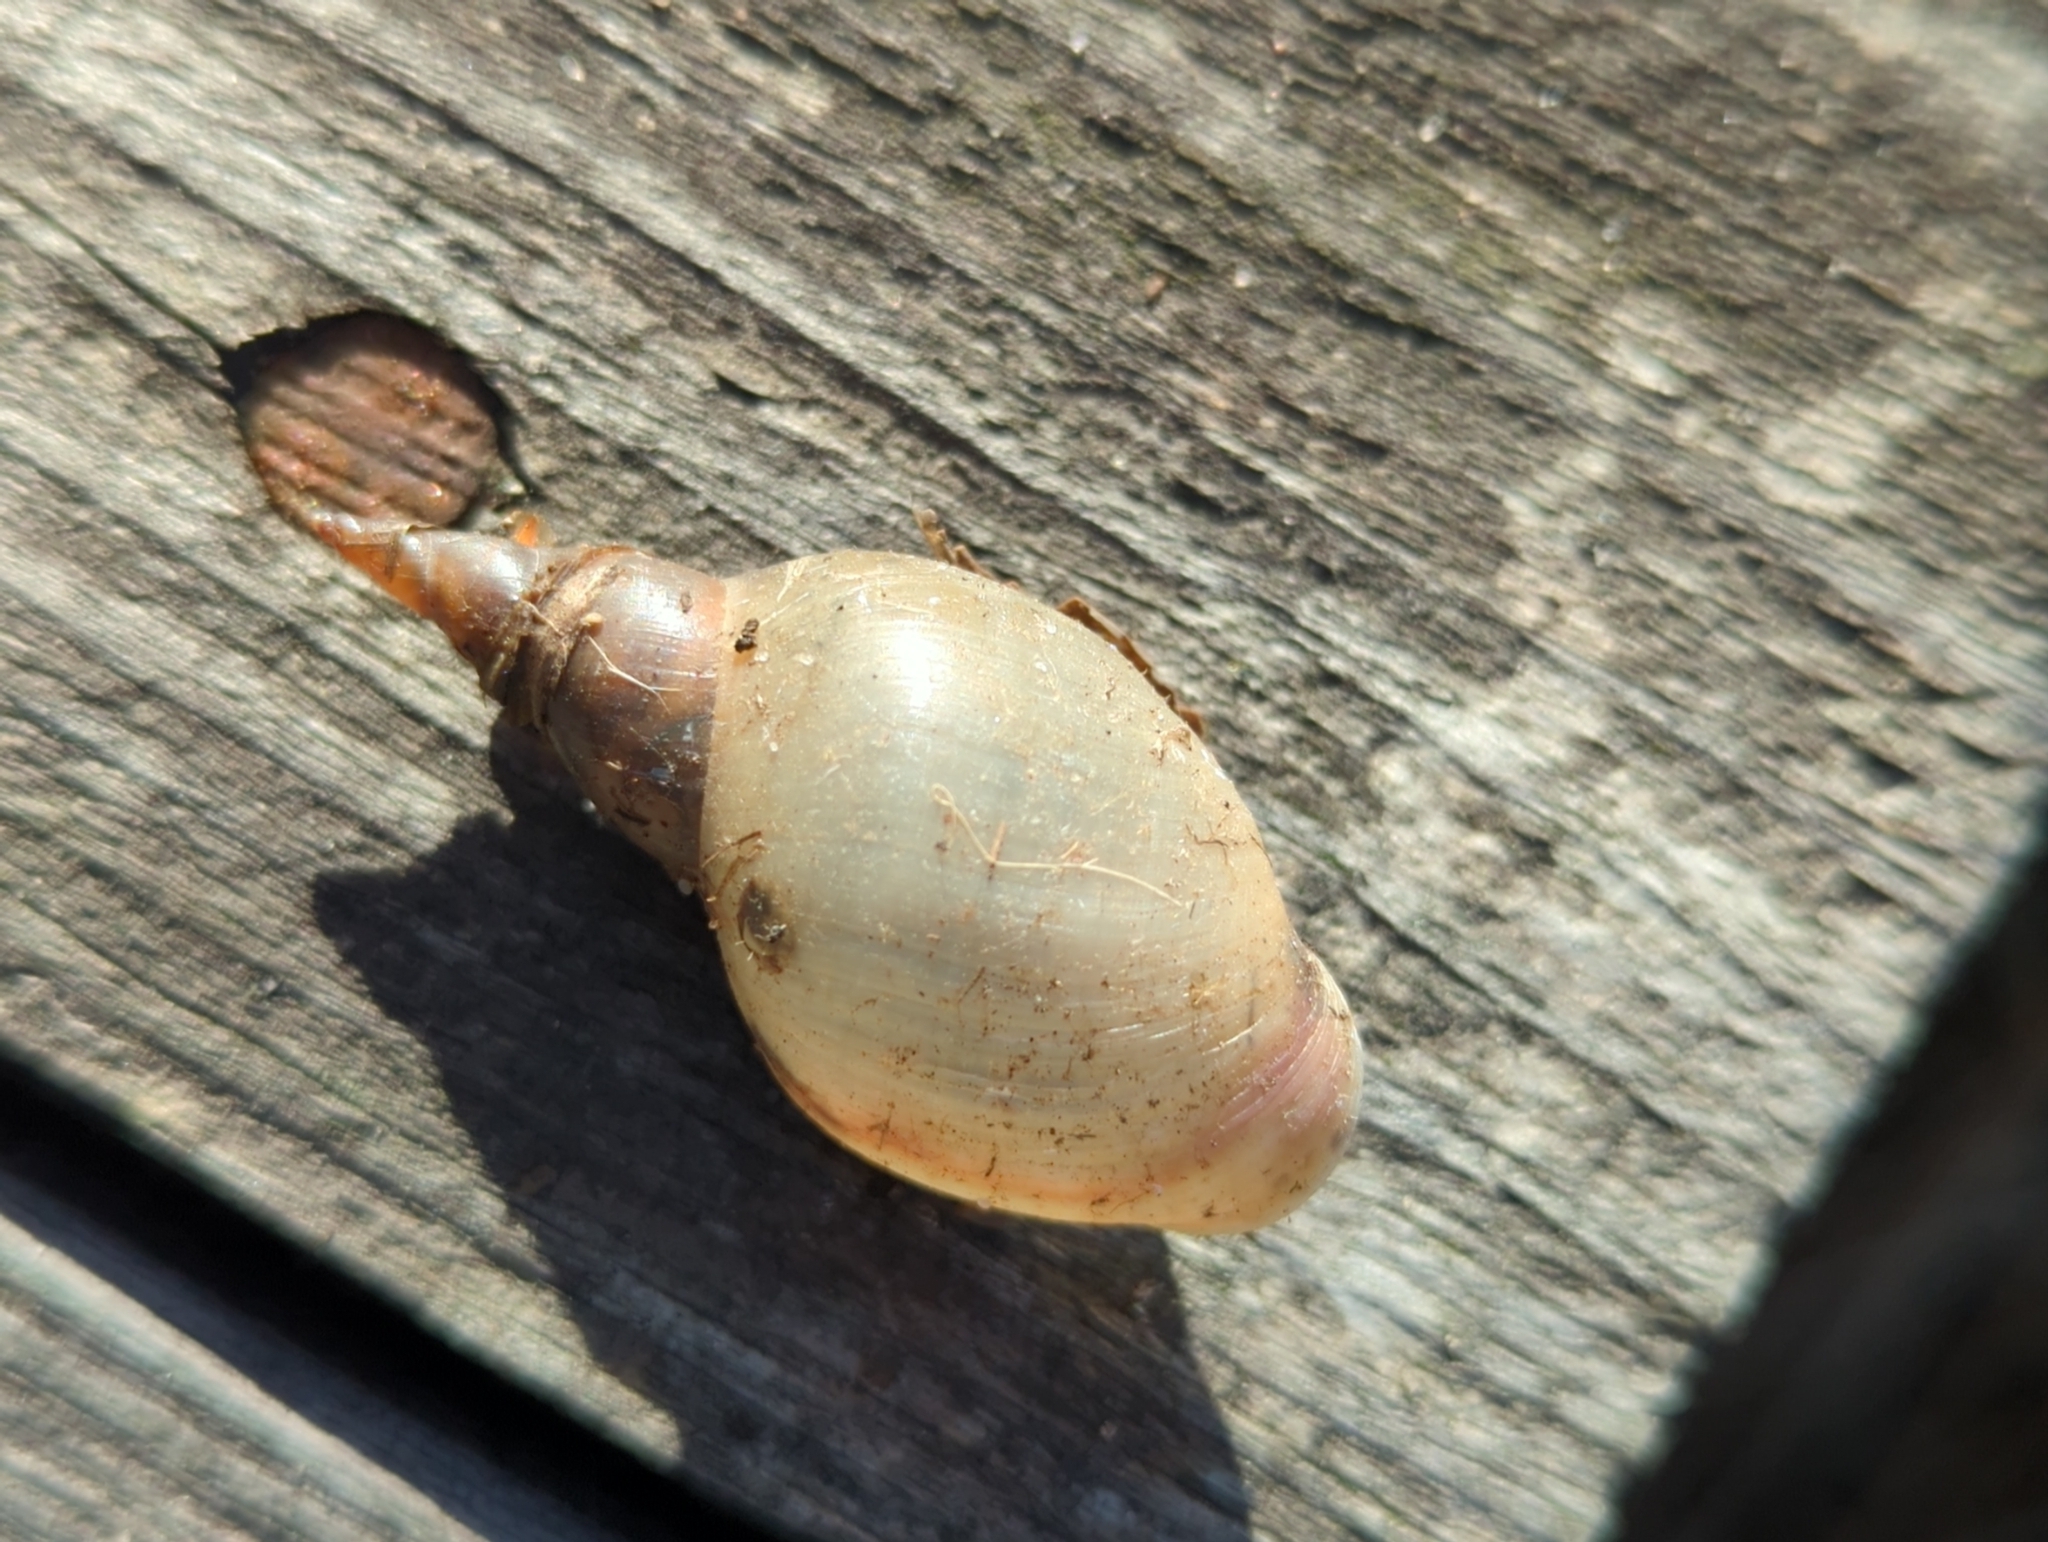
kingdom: Animalia
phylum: Mollusca
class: Gastropoda
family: Lymnaeidae
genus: Lymnaea
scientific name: Lymnaea stagnalis
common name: Great pond snail
